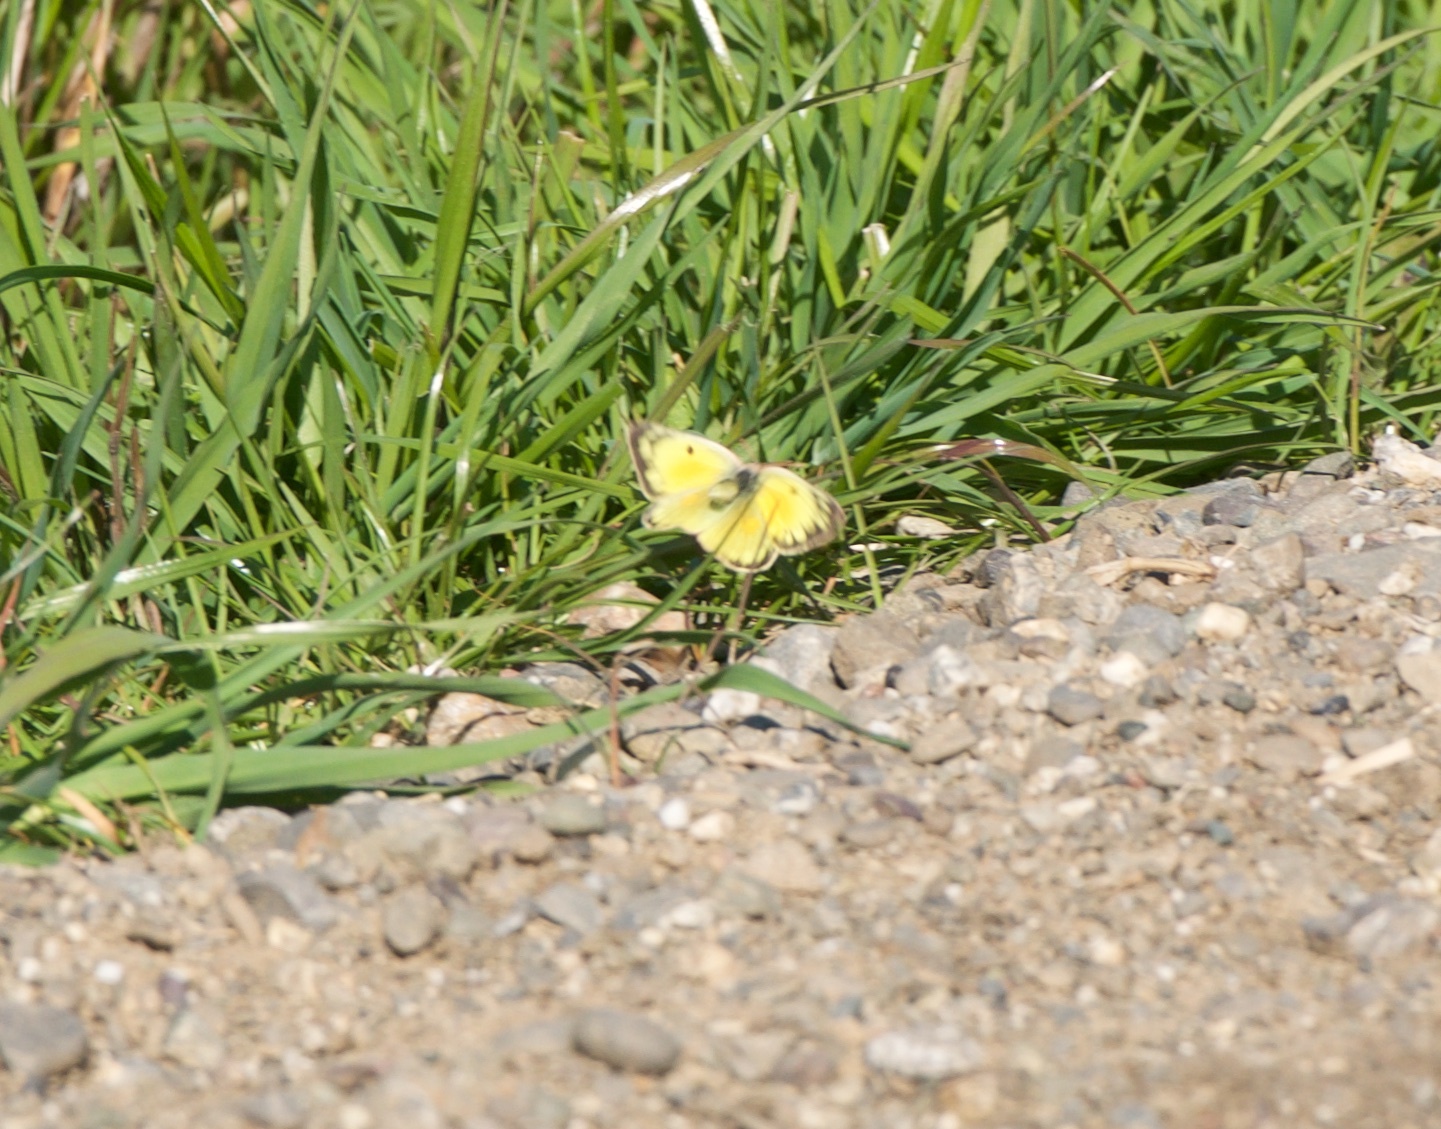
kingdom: Animalia
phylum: Arthropoda
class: Insecta
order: Lepidoptera
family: Pieridae
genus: Colias
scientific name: Colias eurytheme
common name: Alfalfa butterfly
